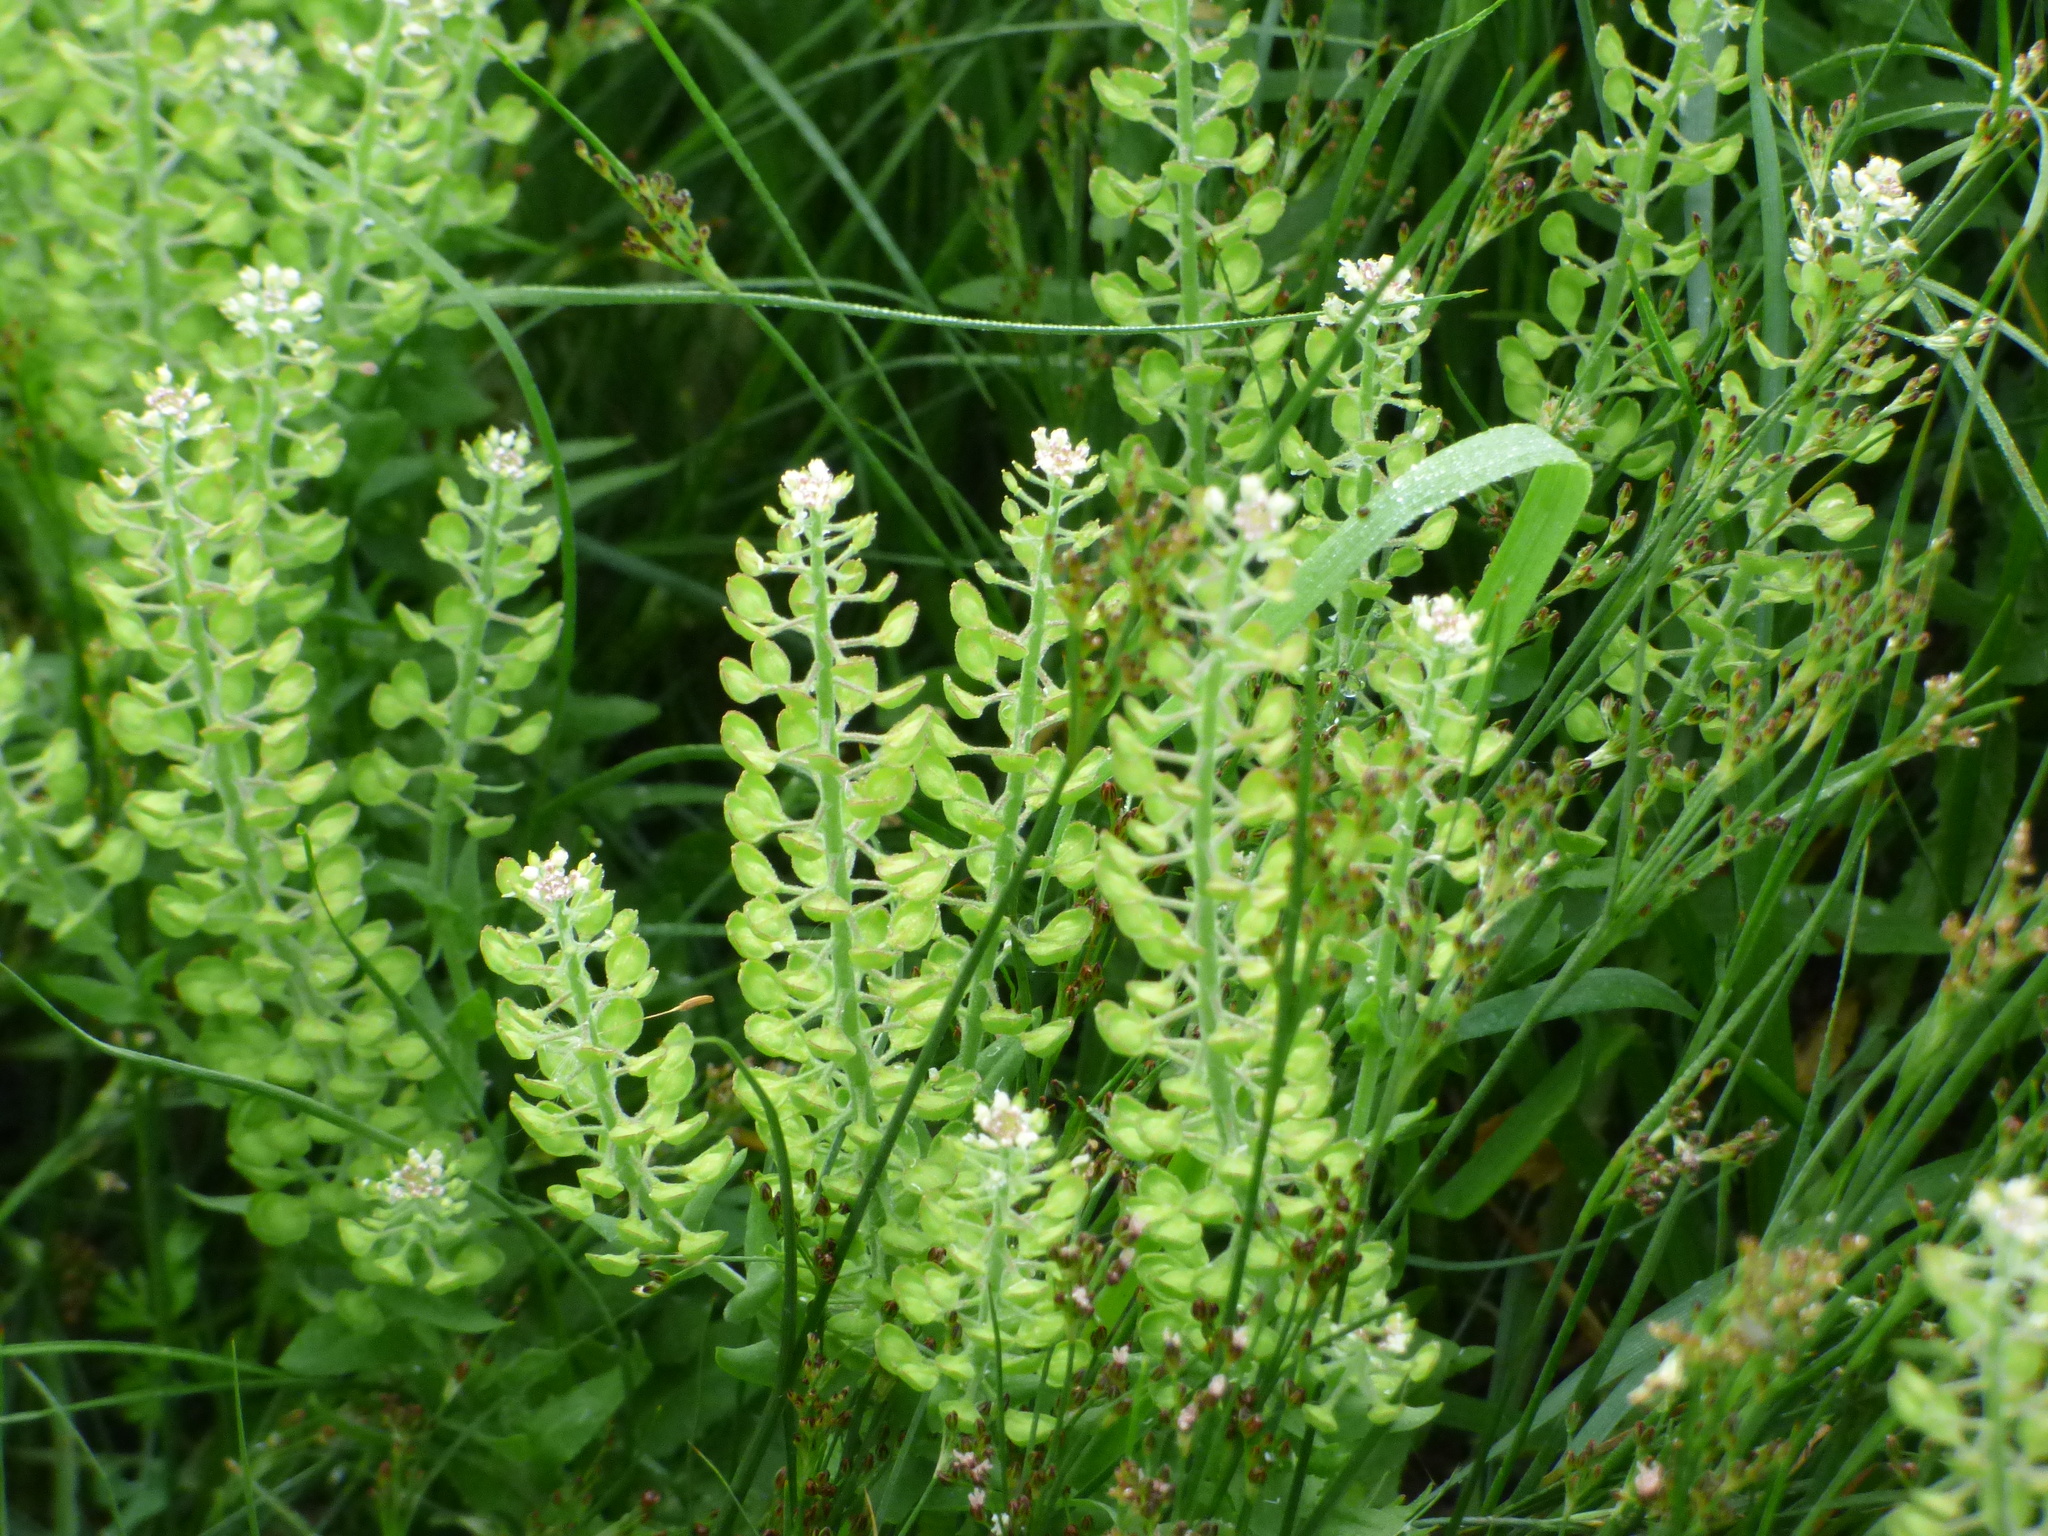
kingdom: Plantae
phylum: Tracheophyta
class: Magnoliopsida
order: Brassicales
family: Brassicaceae
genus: Lepidium
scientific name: Lepidium campestre
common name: Field pepperwort
